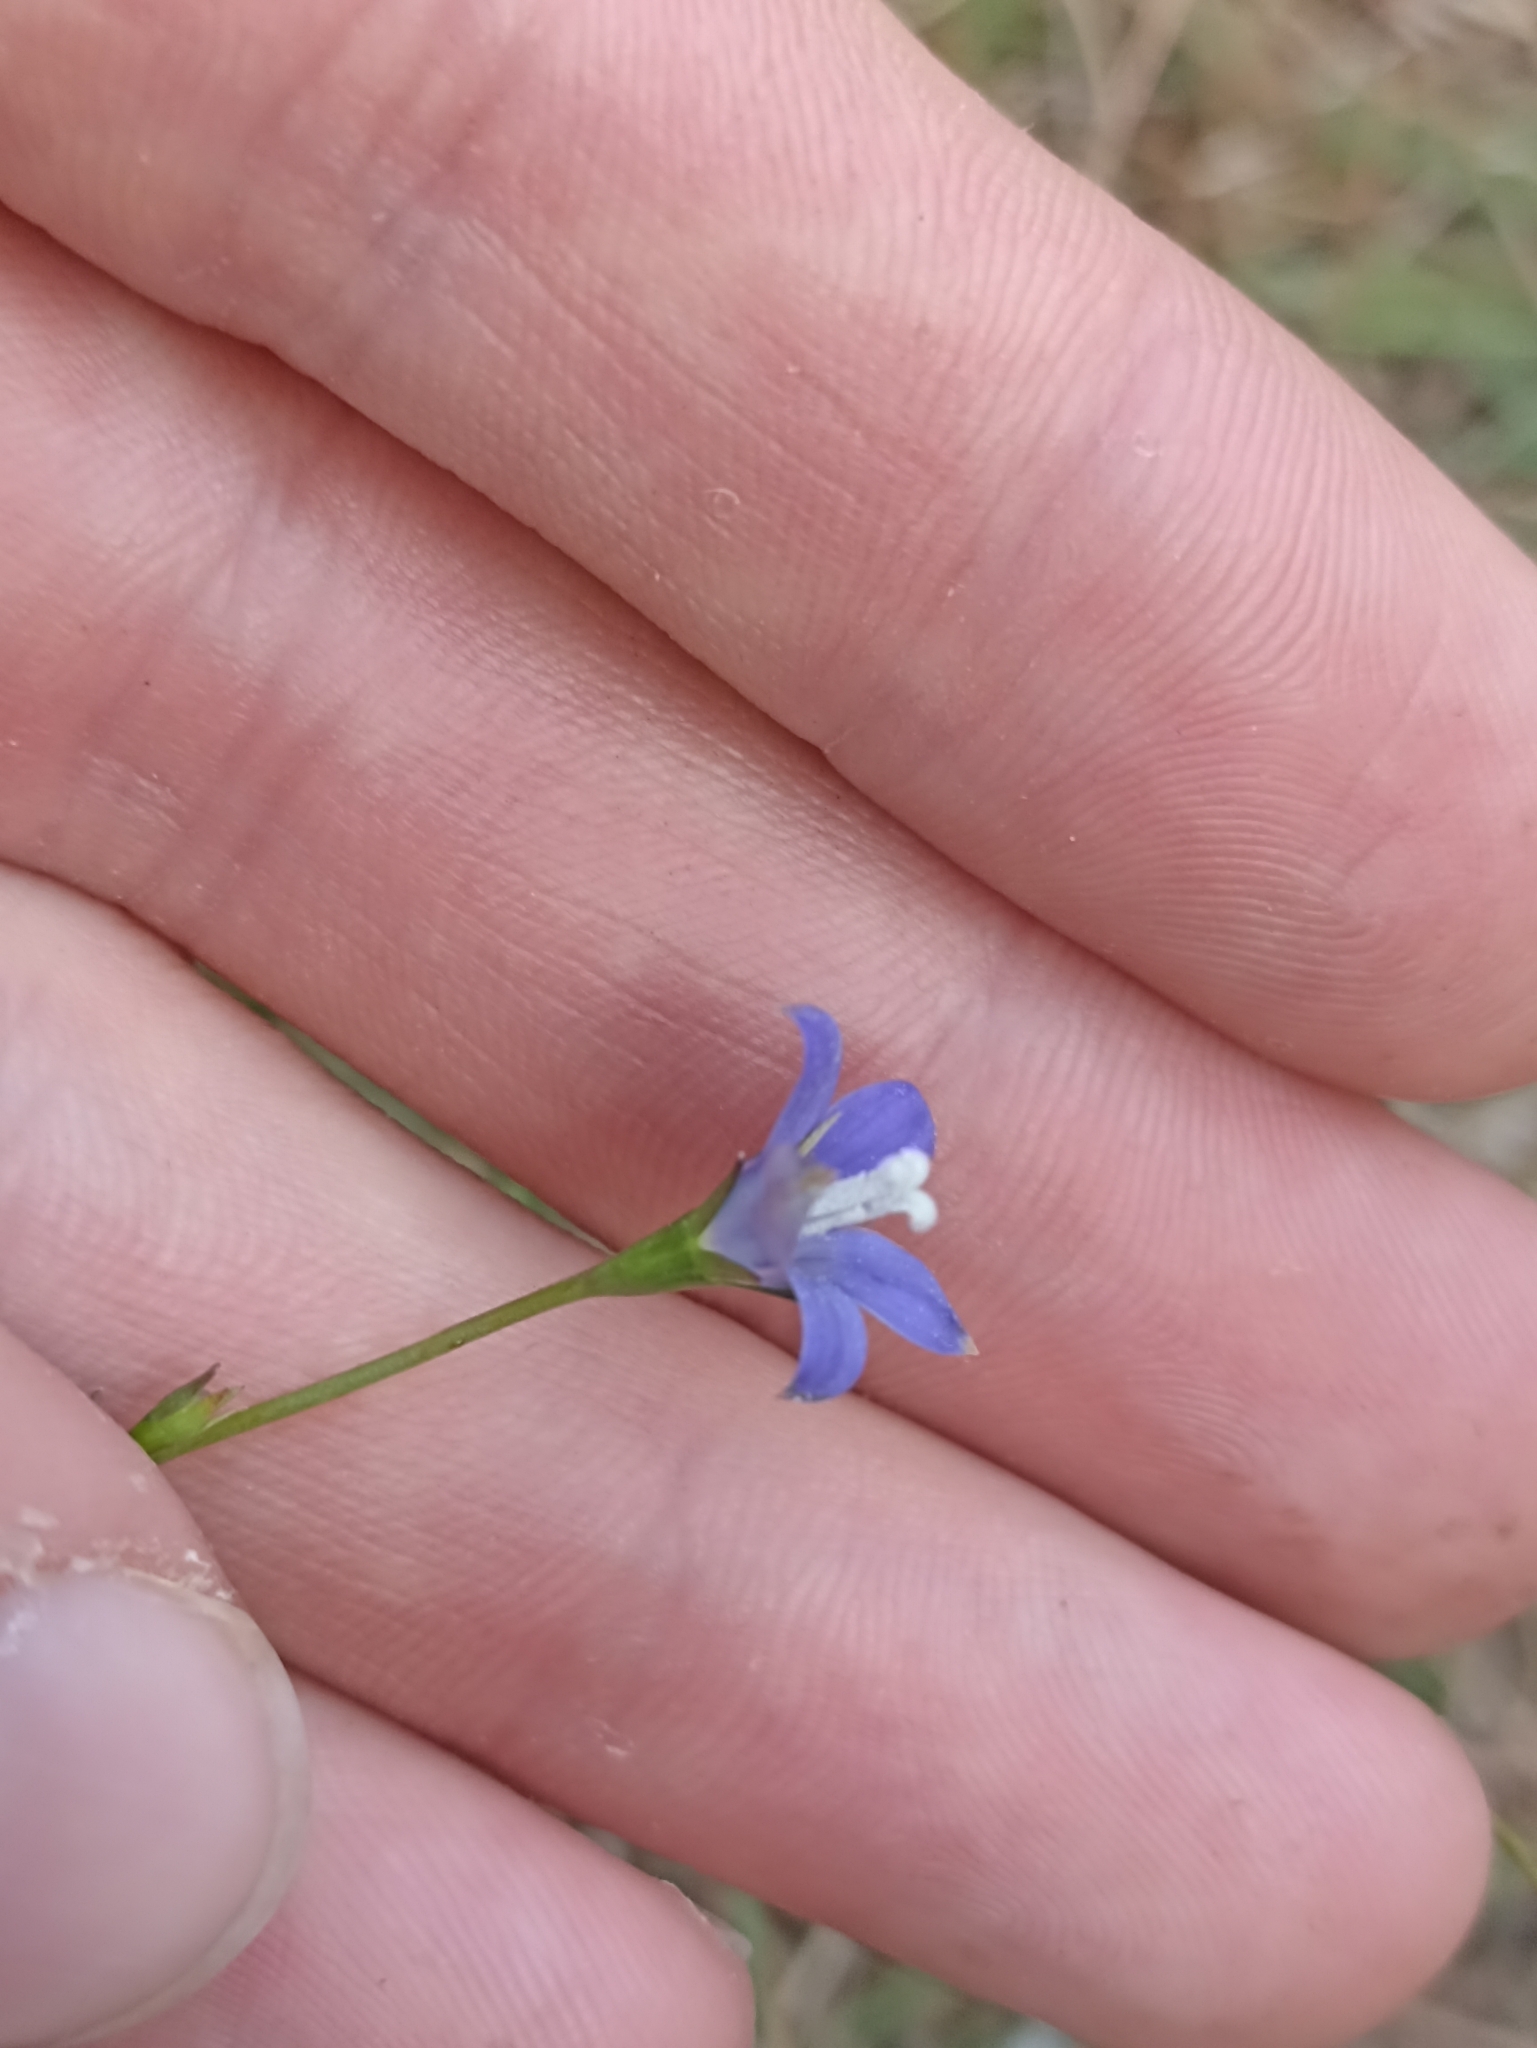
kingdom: Plantae
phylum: Tracheophyta
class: Magnoliopsida
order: Asterales
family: Campanulaceae
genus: Wahlenbergia
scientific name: Wahlenbergia violacea
